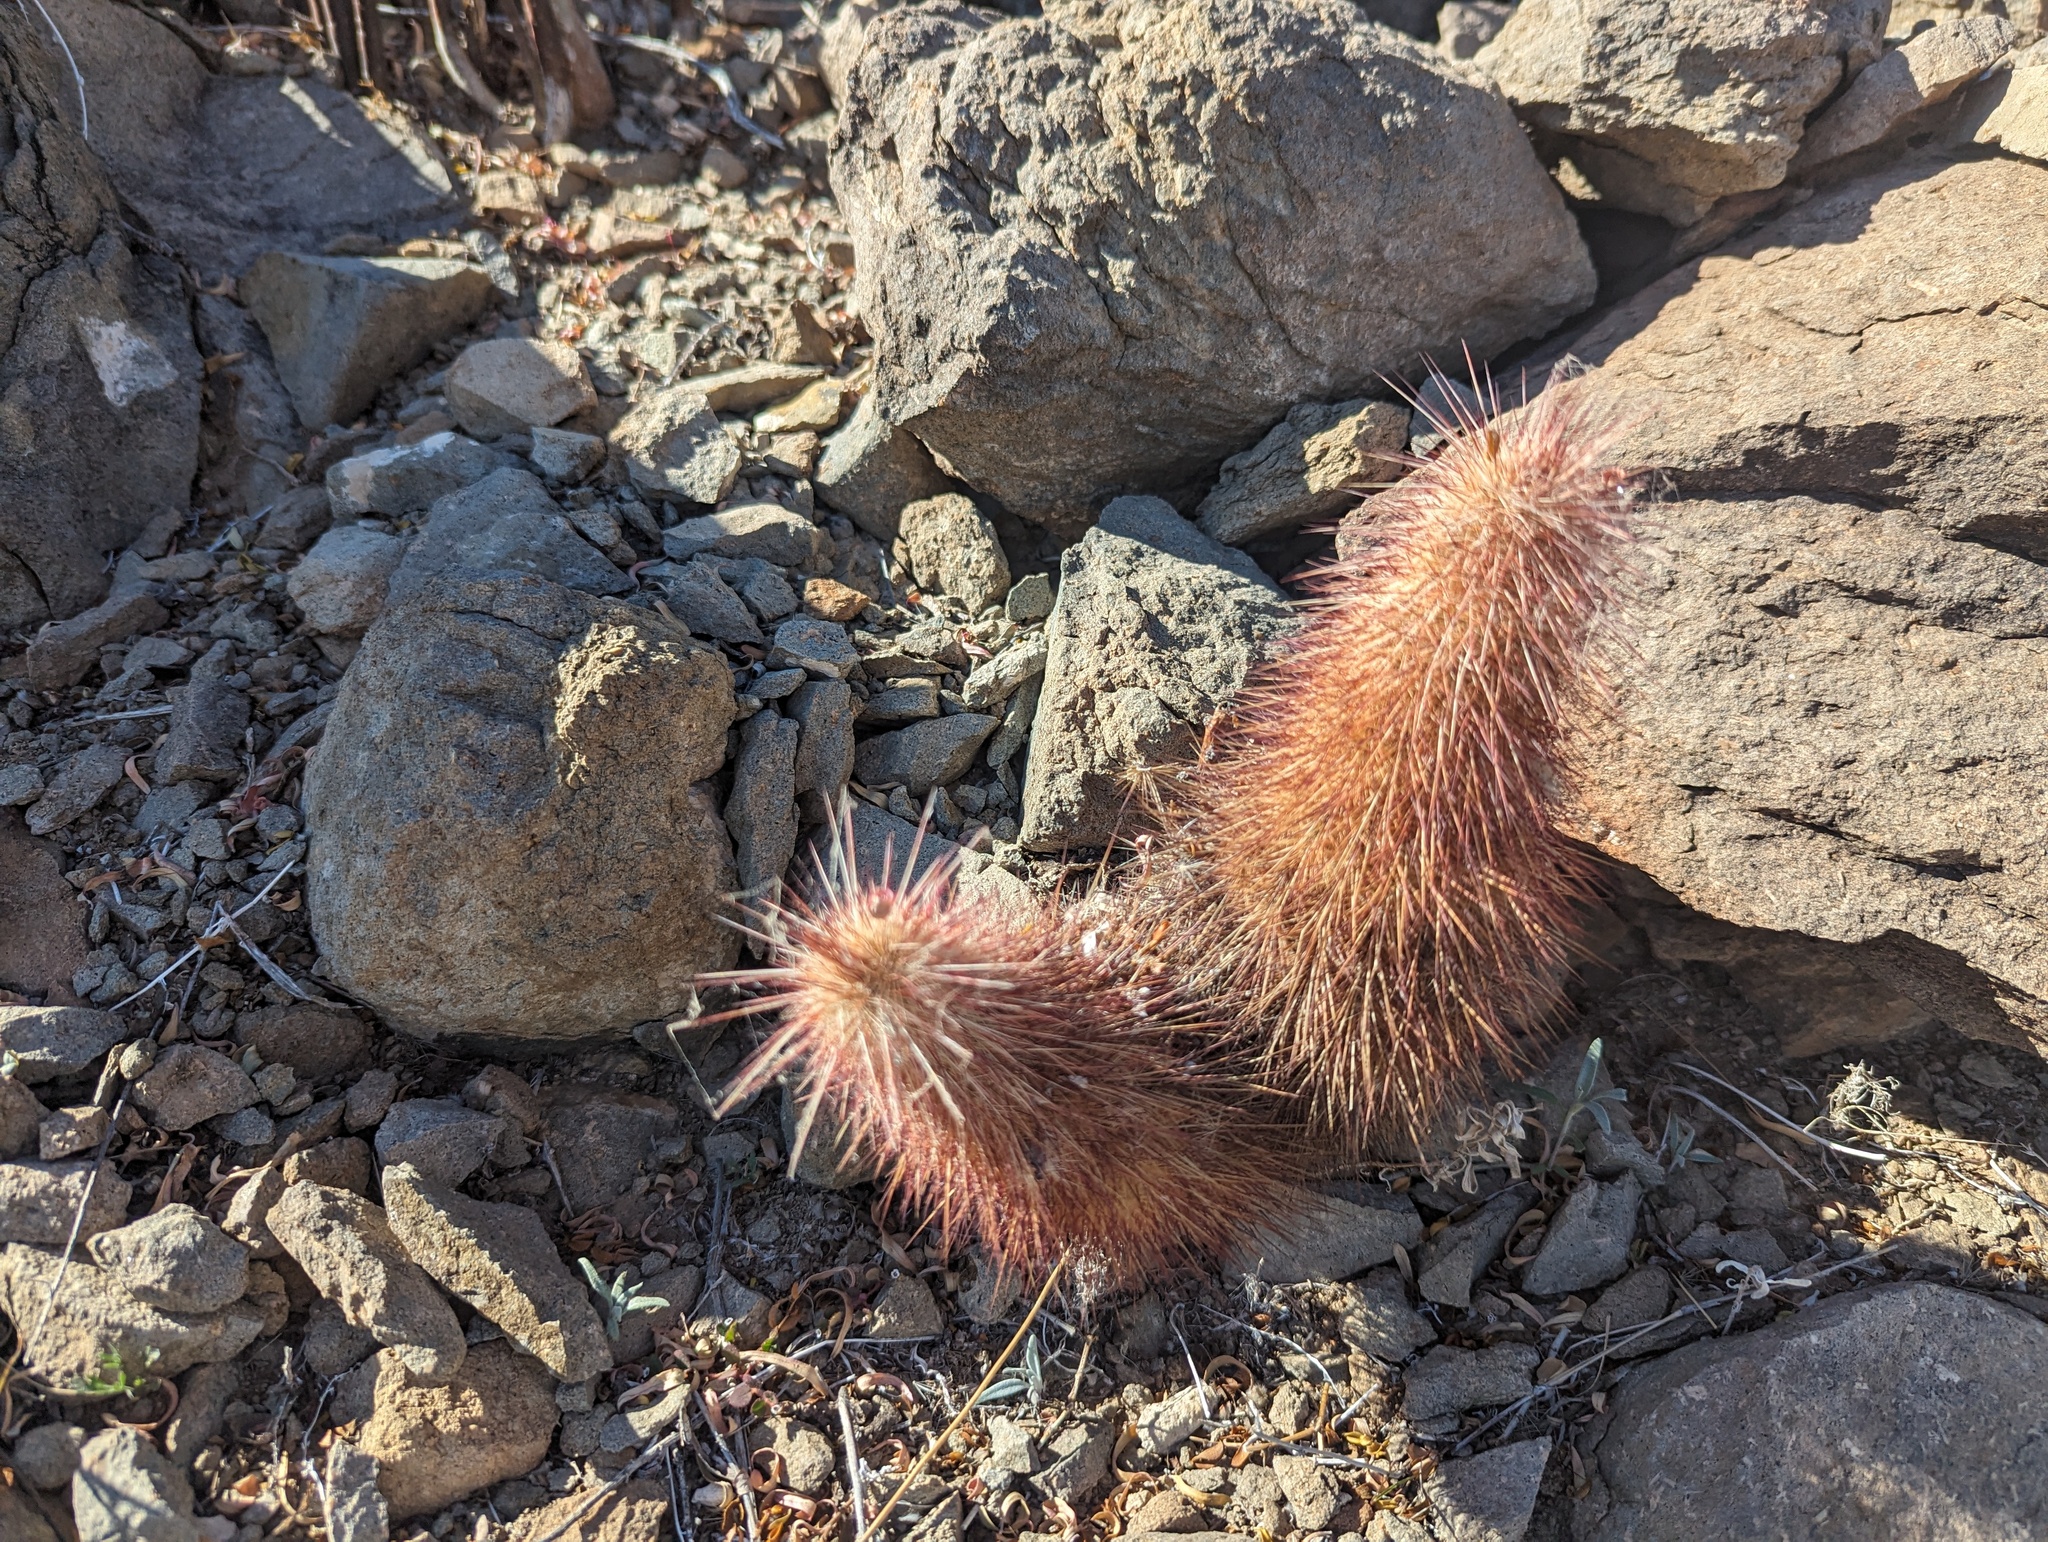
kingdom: Plantae
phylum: Tracheophyta
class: Magnoliopsida
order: Caryophyllales
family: Cactaceae
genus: Echinocereus
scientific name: Echinocereus russanthus
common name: Brownspine hedgehog cactus
